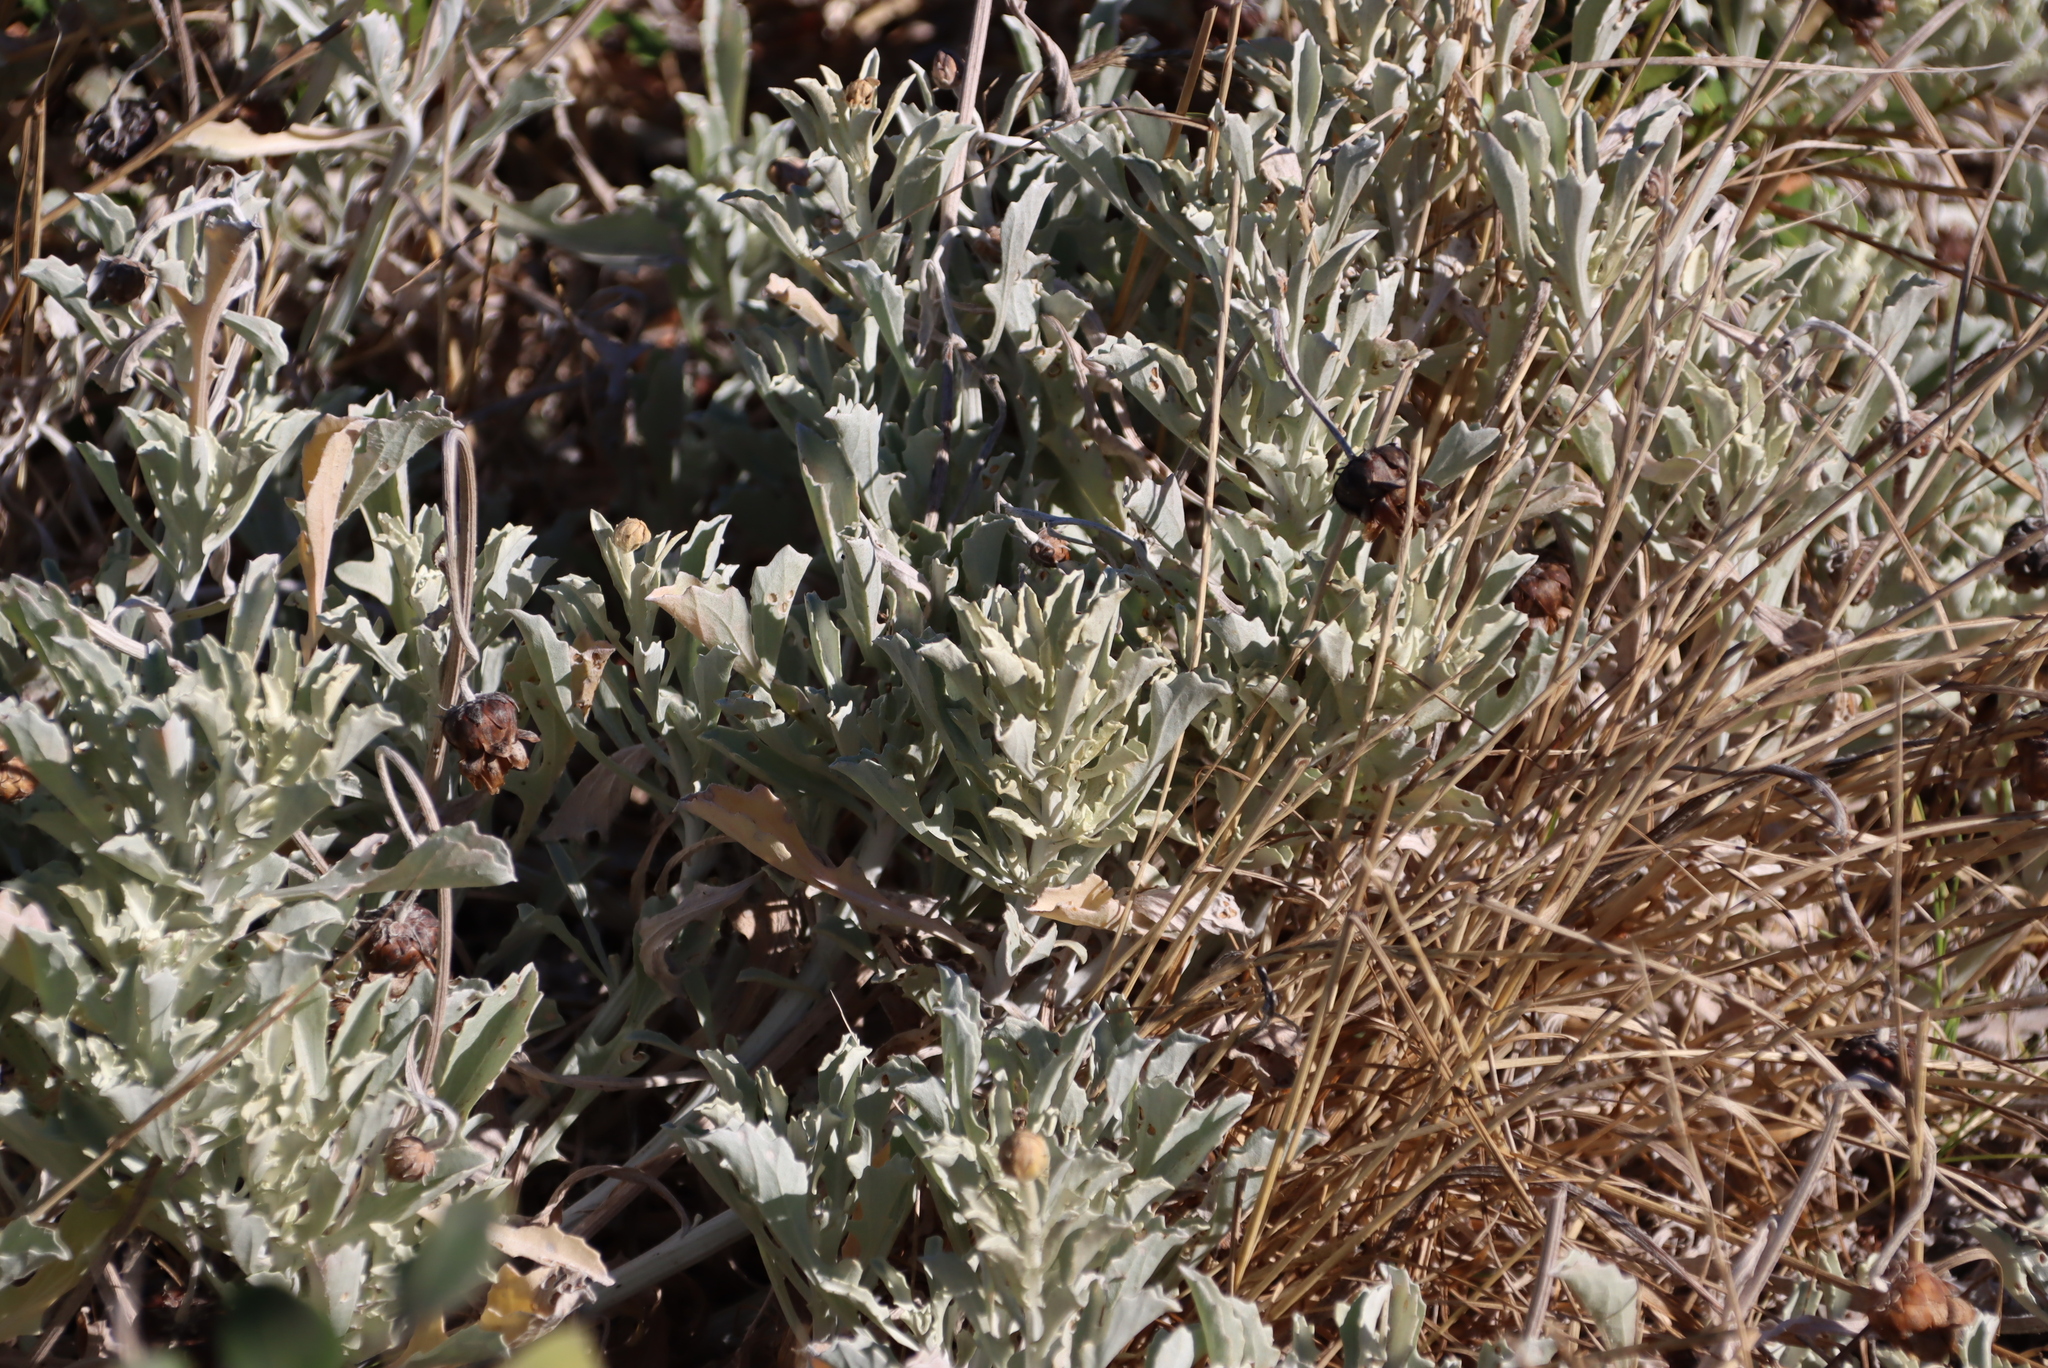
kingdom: Plantae
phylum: Tracheophyta
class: Magnoliopsida
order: Asterales
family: Asteraceae
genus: Arctotis
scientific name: Arctotis stoechadifolia
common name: African daisy
